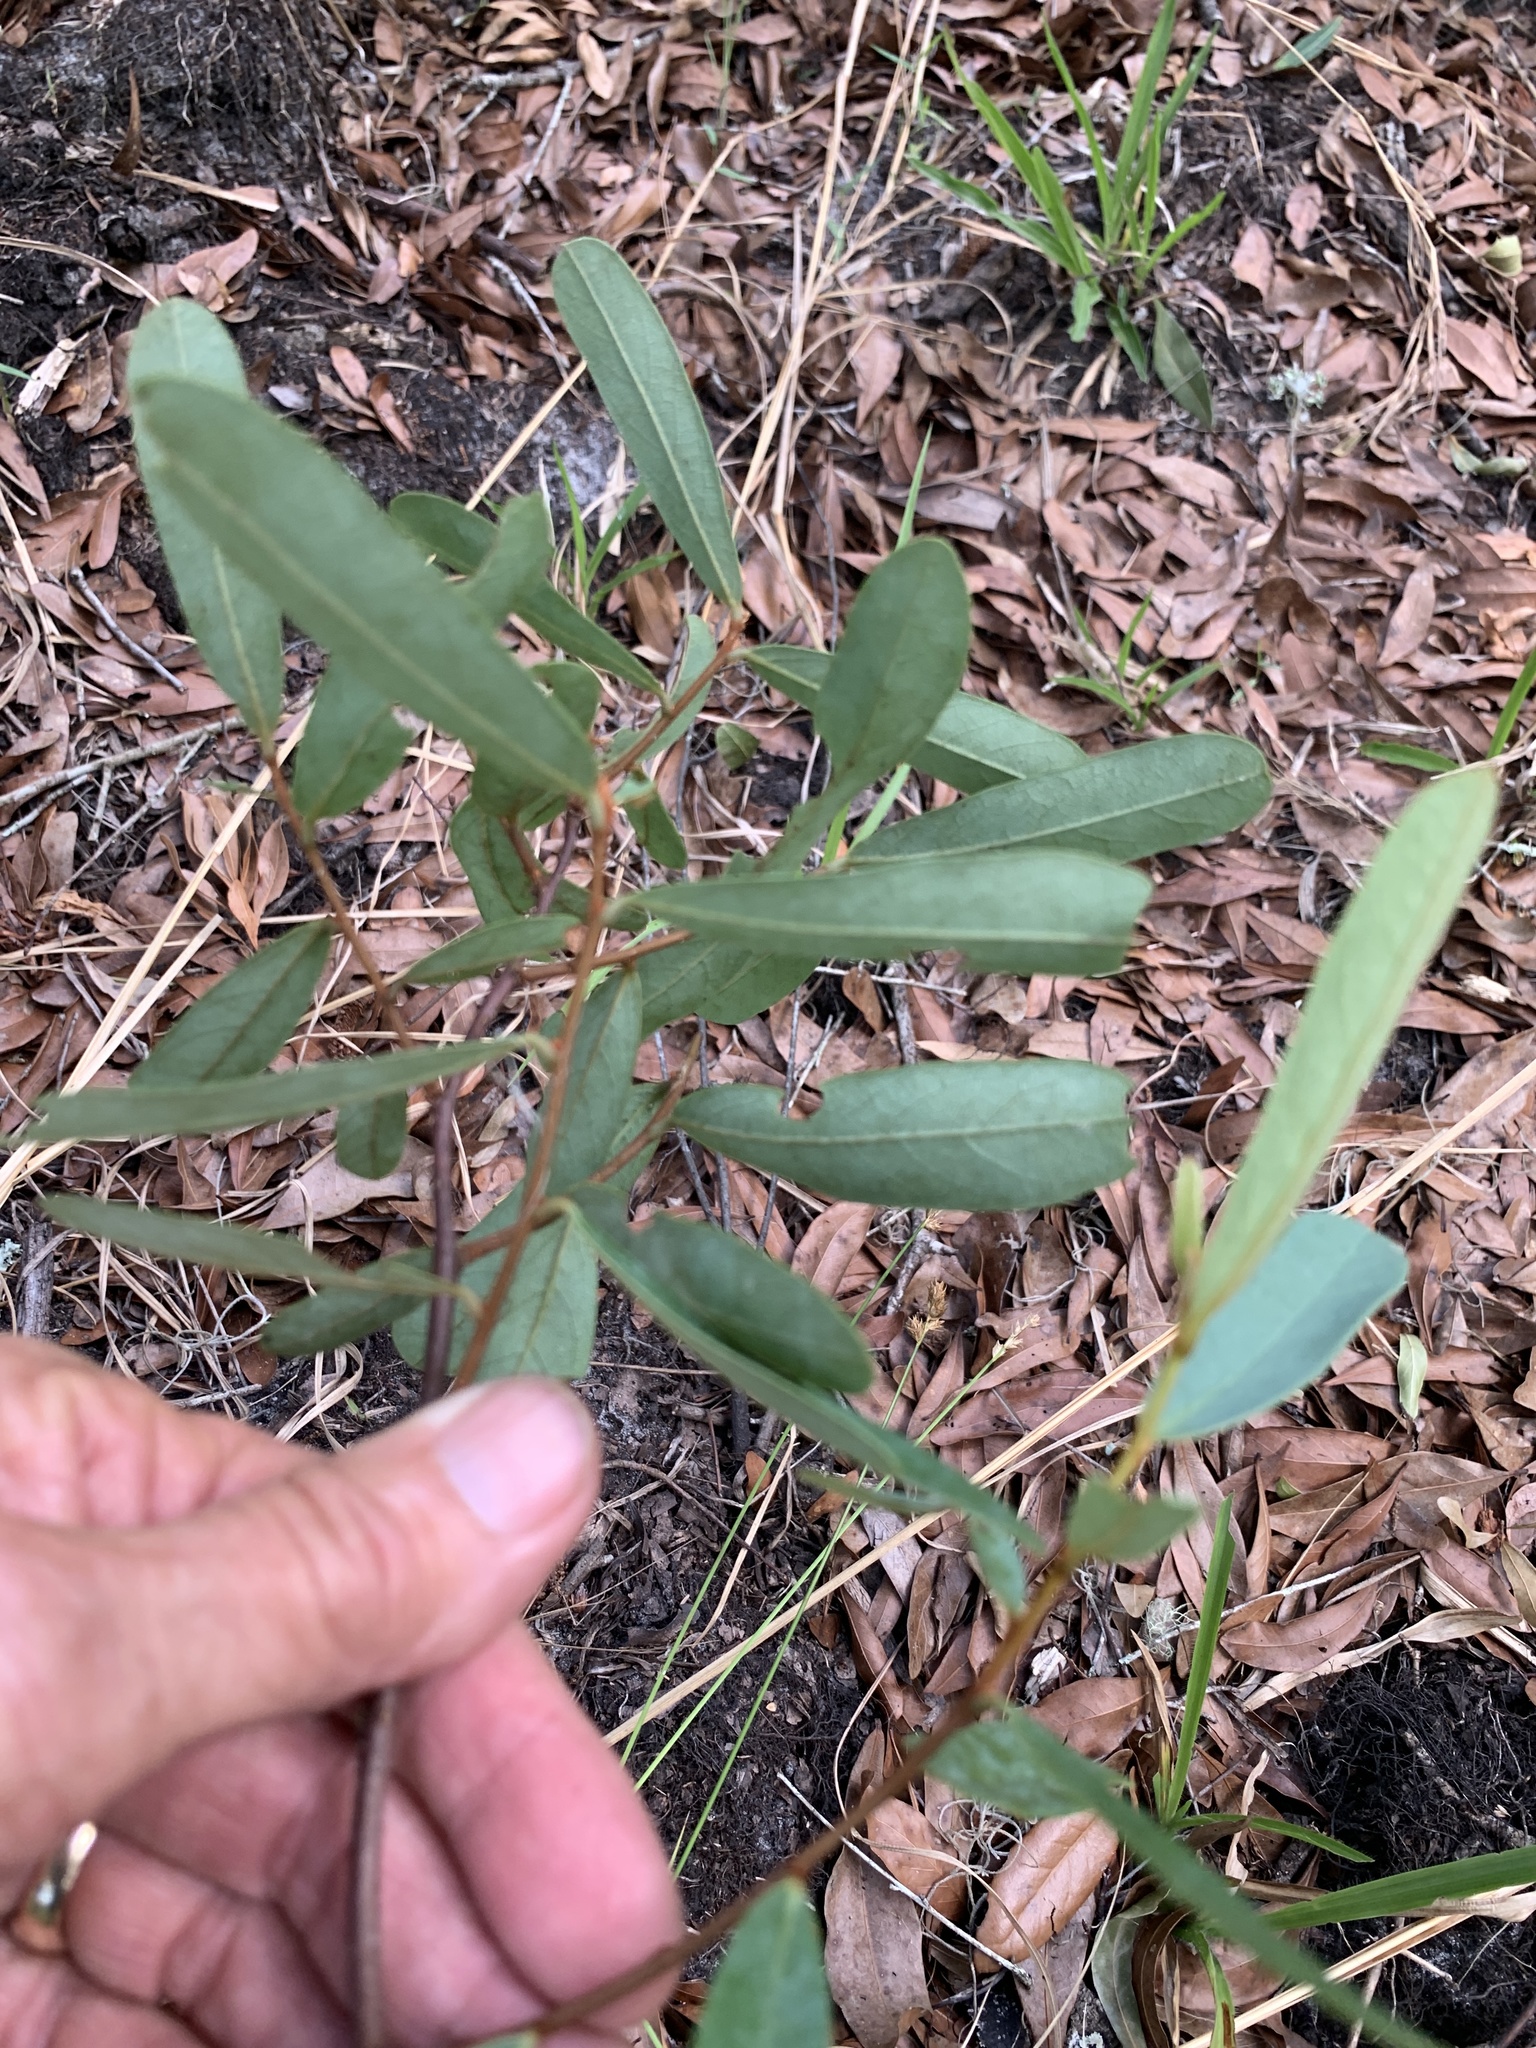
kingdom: Plantae
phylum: Tracheophyta
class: Magnoliopsida
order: Magnoliales
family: Annonaceae
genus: Asimina
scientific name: Asimina reticulata
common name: Flag pawpaw
